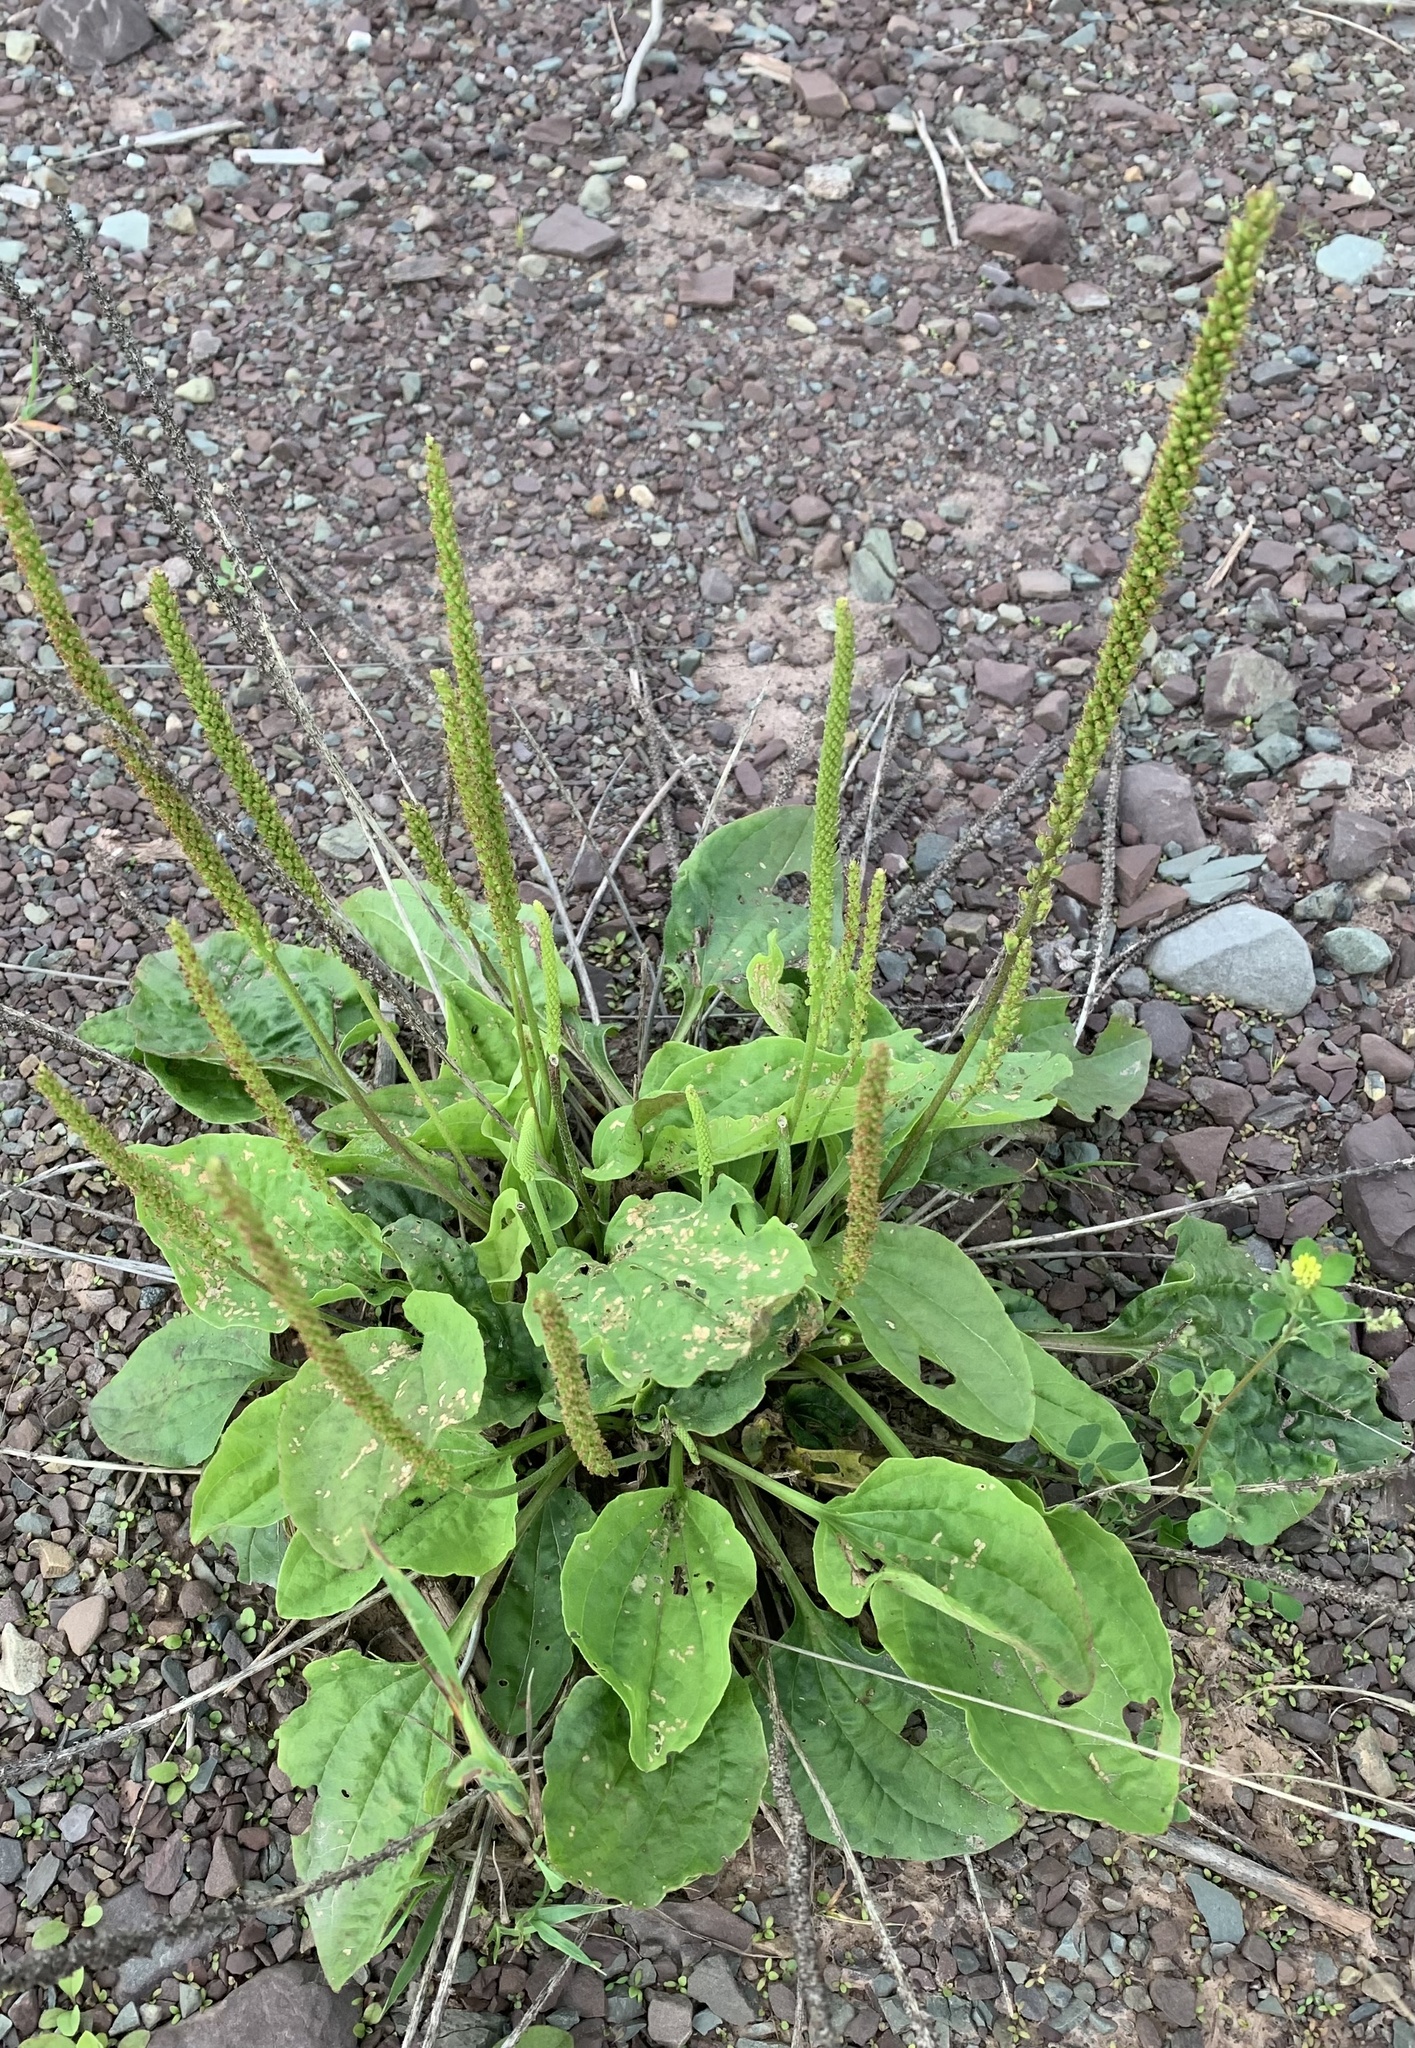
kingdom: Plantae
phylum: Tracheophyta
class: Magnoliopsida
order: Lamiales
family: Plantaginaceae
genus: Plantago
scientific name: Plantago major
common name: Common plantain
